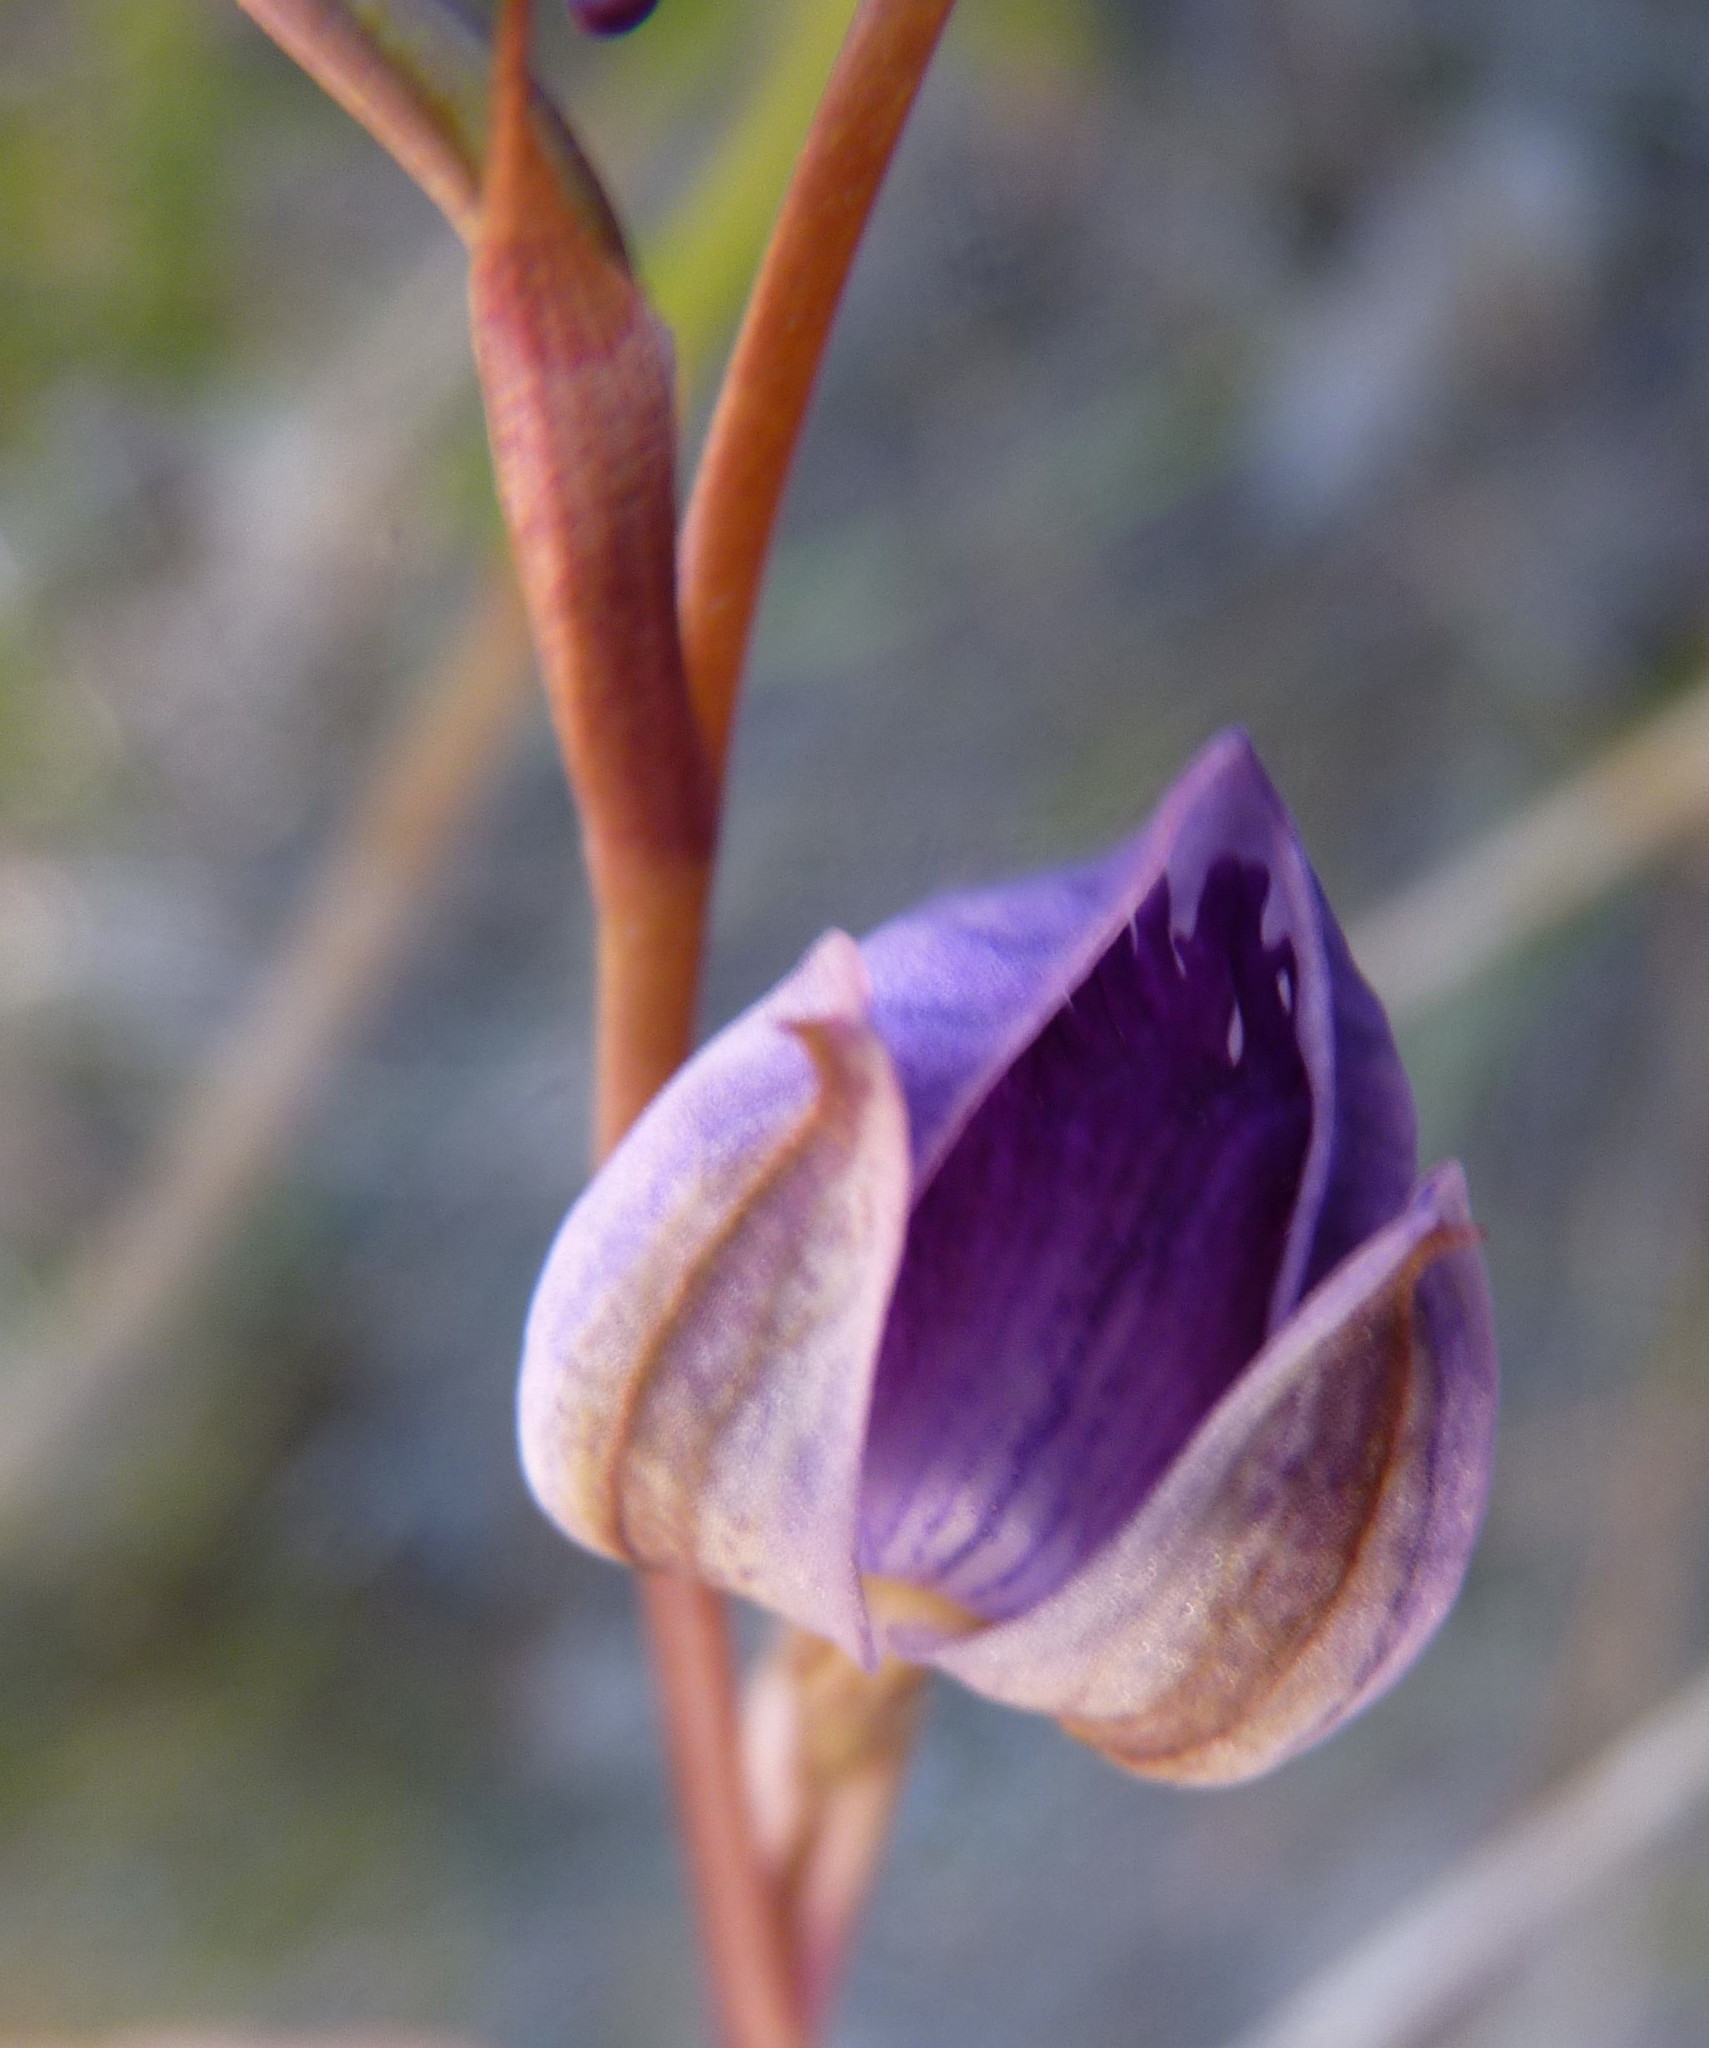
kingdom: Plantae
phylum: Tracheophyta
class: Liliopsida
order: Asparagales
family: Orchidaceae
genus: Disa
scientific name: Disa hians
